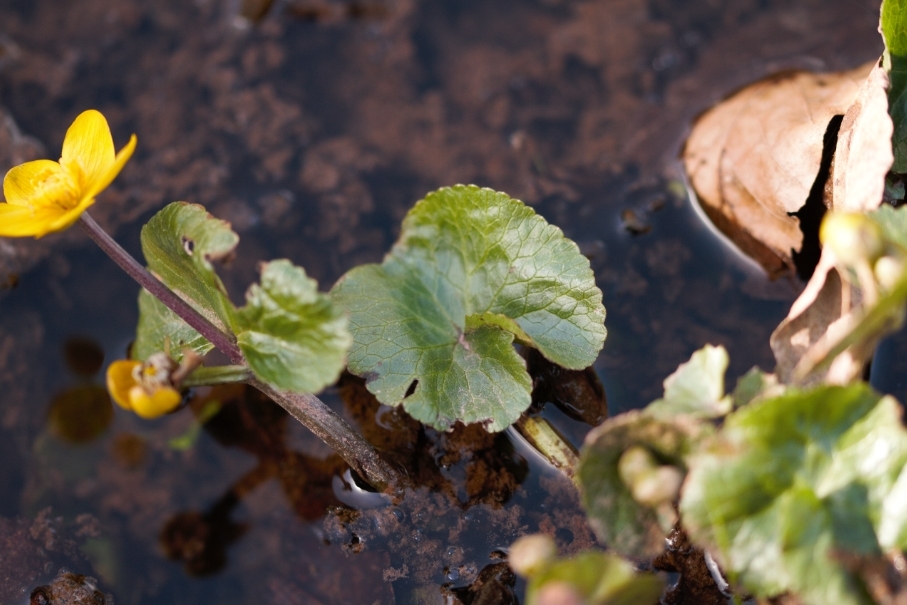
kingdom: Plantae
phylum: Tracheophyta
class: Magnoliopsida
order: Ranunculales
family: Ranunculaceae
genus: Caltha
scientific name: Caltha palustris
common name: Marsh marigold
